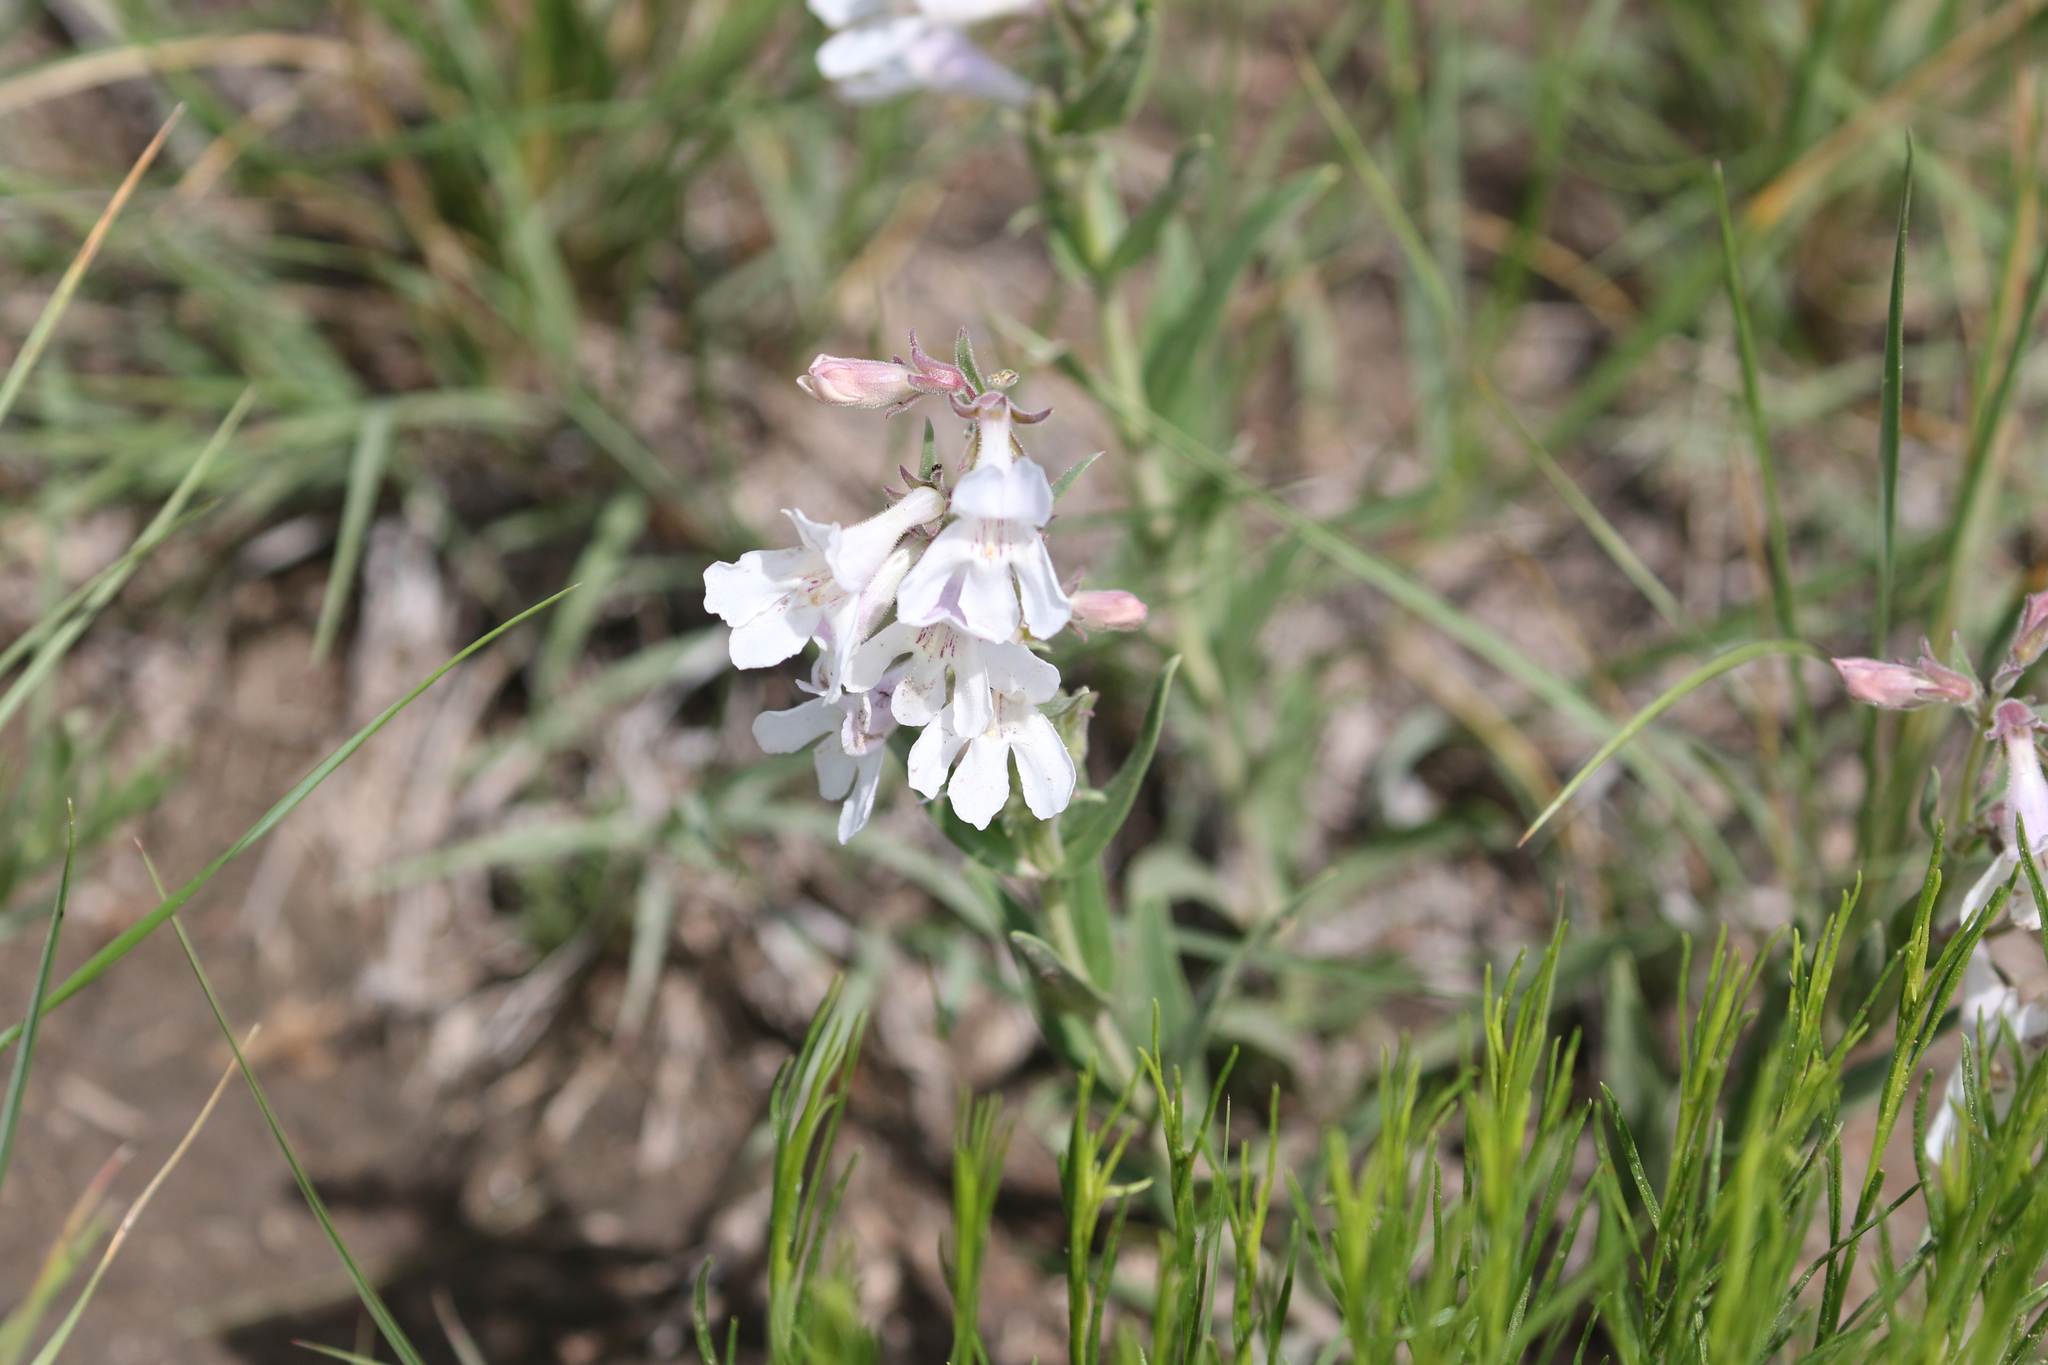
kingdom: Plantae
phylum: Tracheophyta
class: Magnoliopsida
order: Lamiales
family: Plantaginaceae
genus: Penstemon
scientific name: Penstemon albidus
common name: White beardtongue
